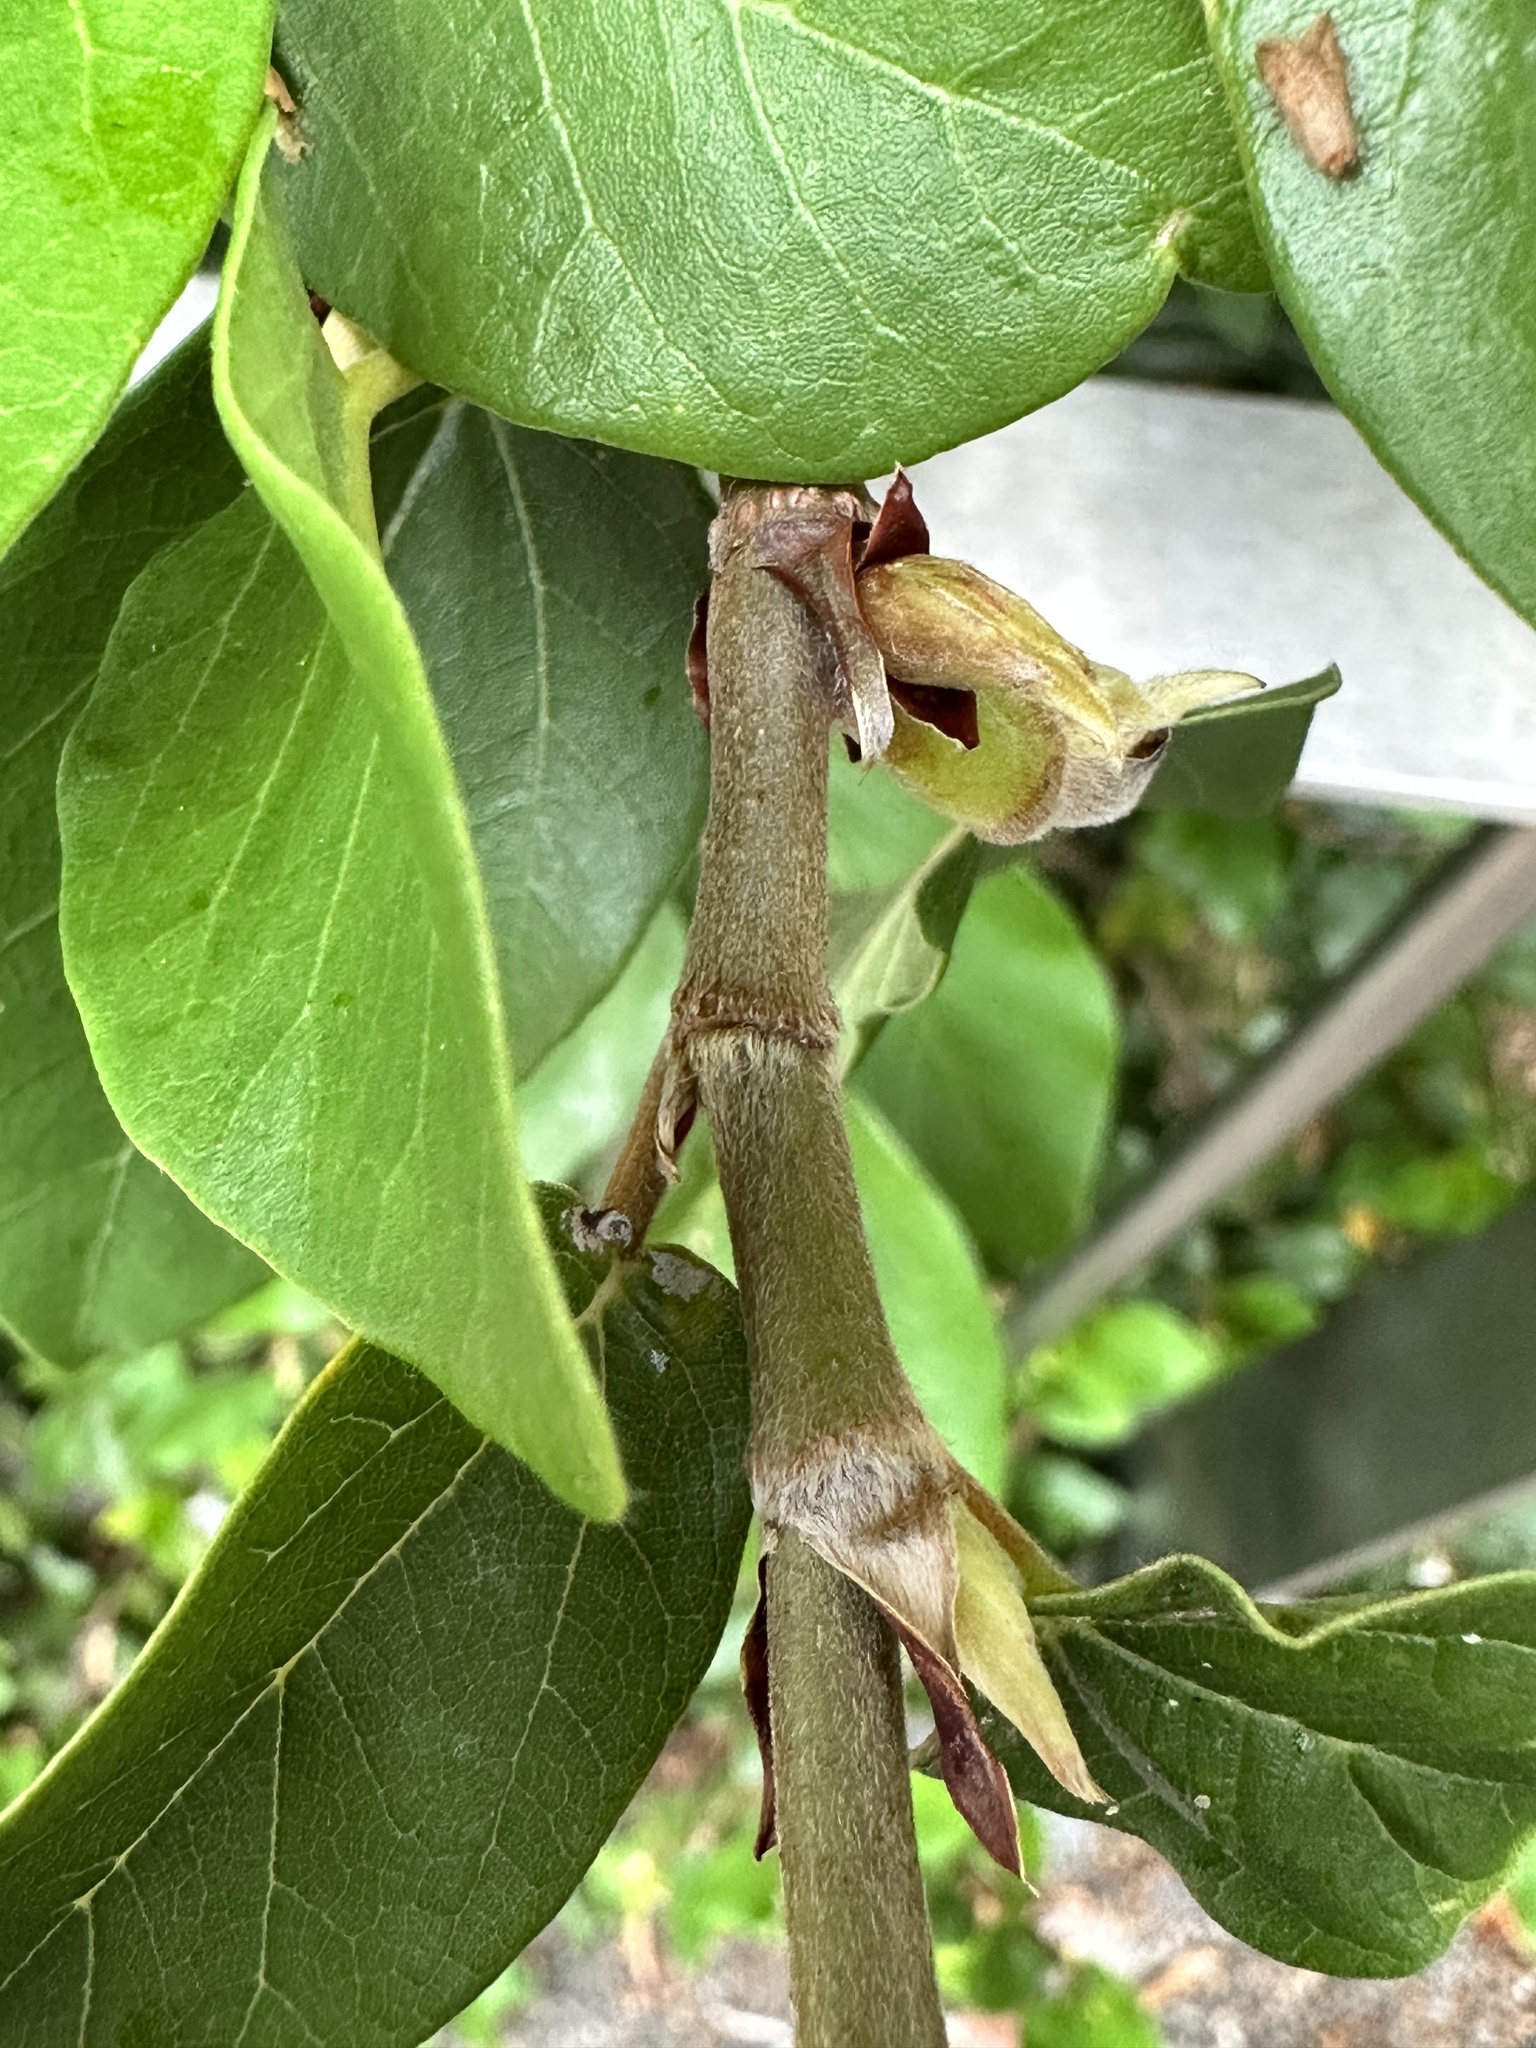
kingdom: Plantae
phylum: Tracheophyta
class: Magnoliopsida
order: Rosales
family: Moraceae
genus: Ficus
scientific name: Ficus pumila
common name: Climbingfig
